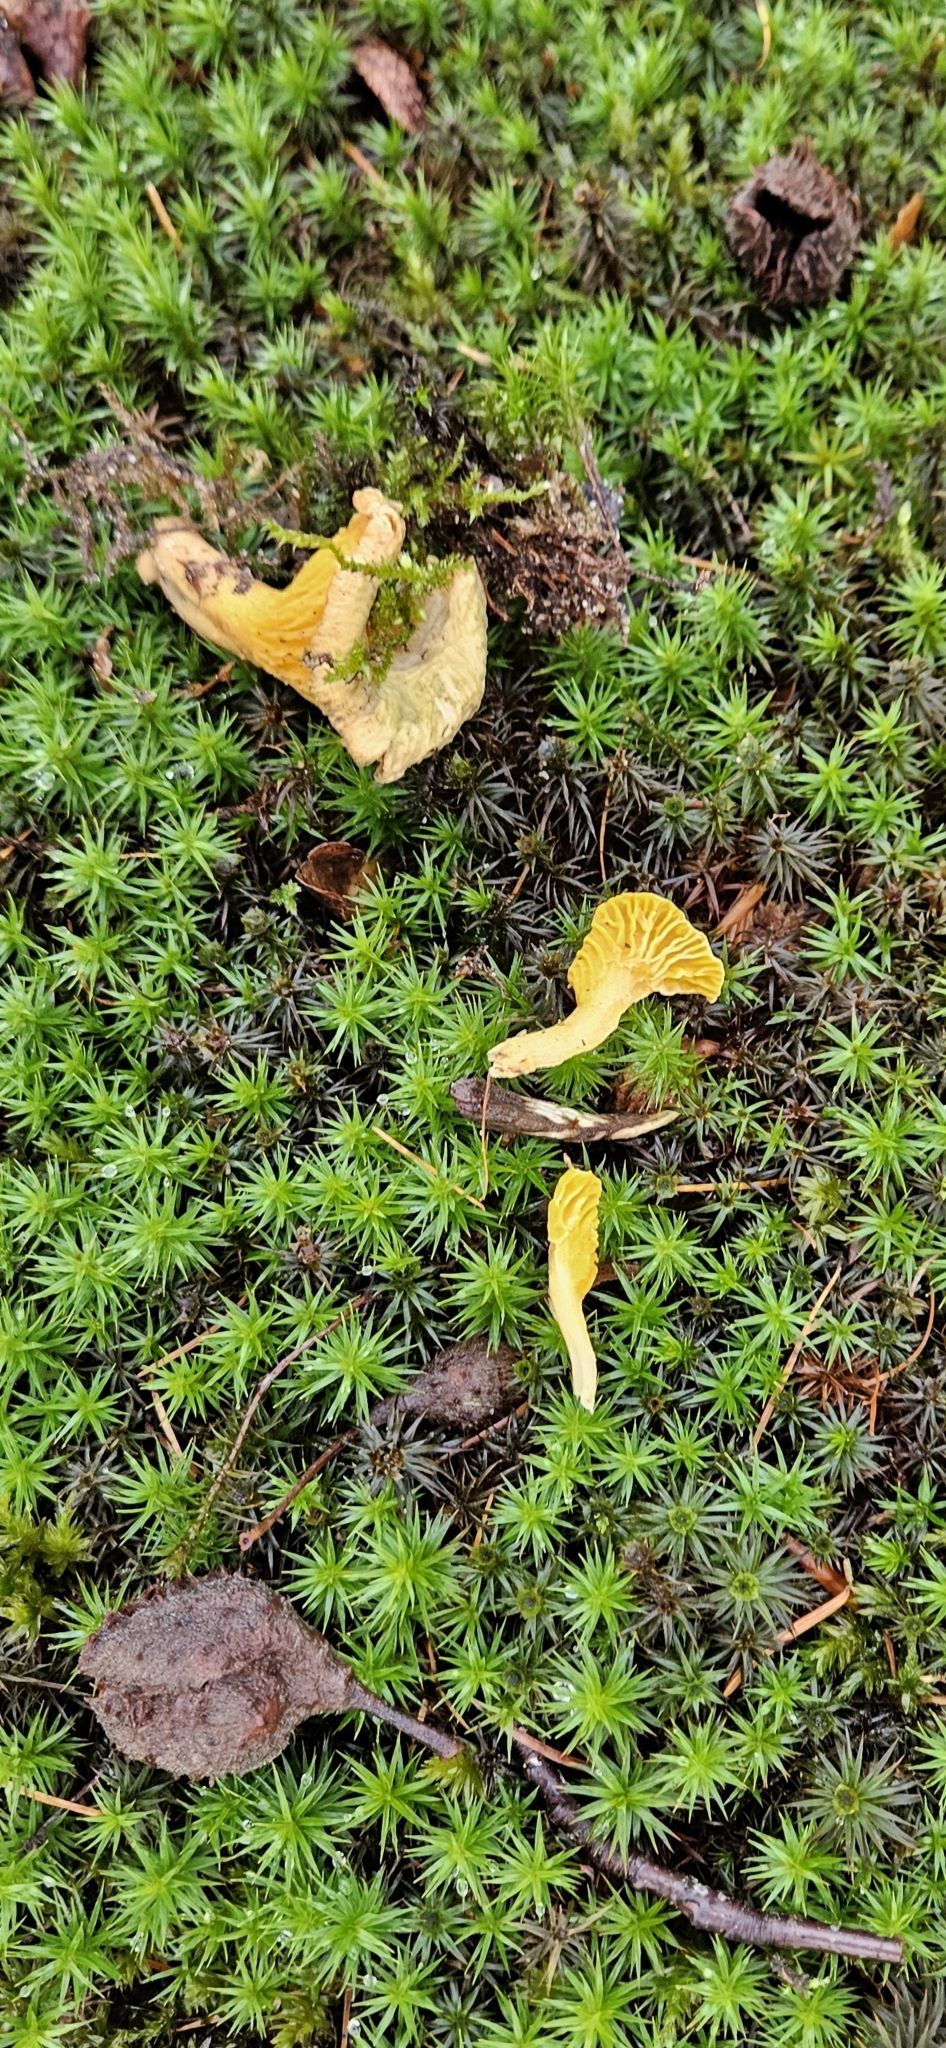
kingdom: Fungi
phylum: Basidiomycota
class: Agaricomycetes
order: Cantharellales
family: Hydnaceae
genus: Cantharellus
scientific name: Cantharellus cibarius
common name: Chanterelle
